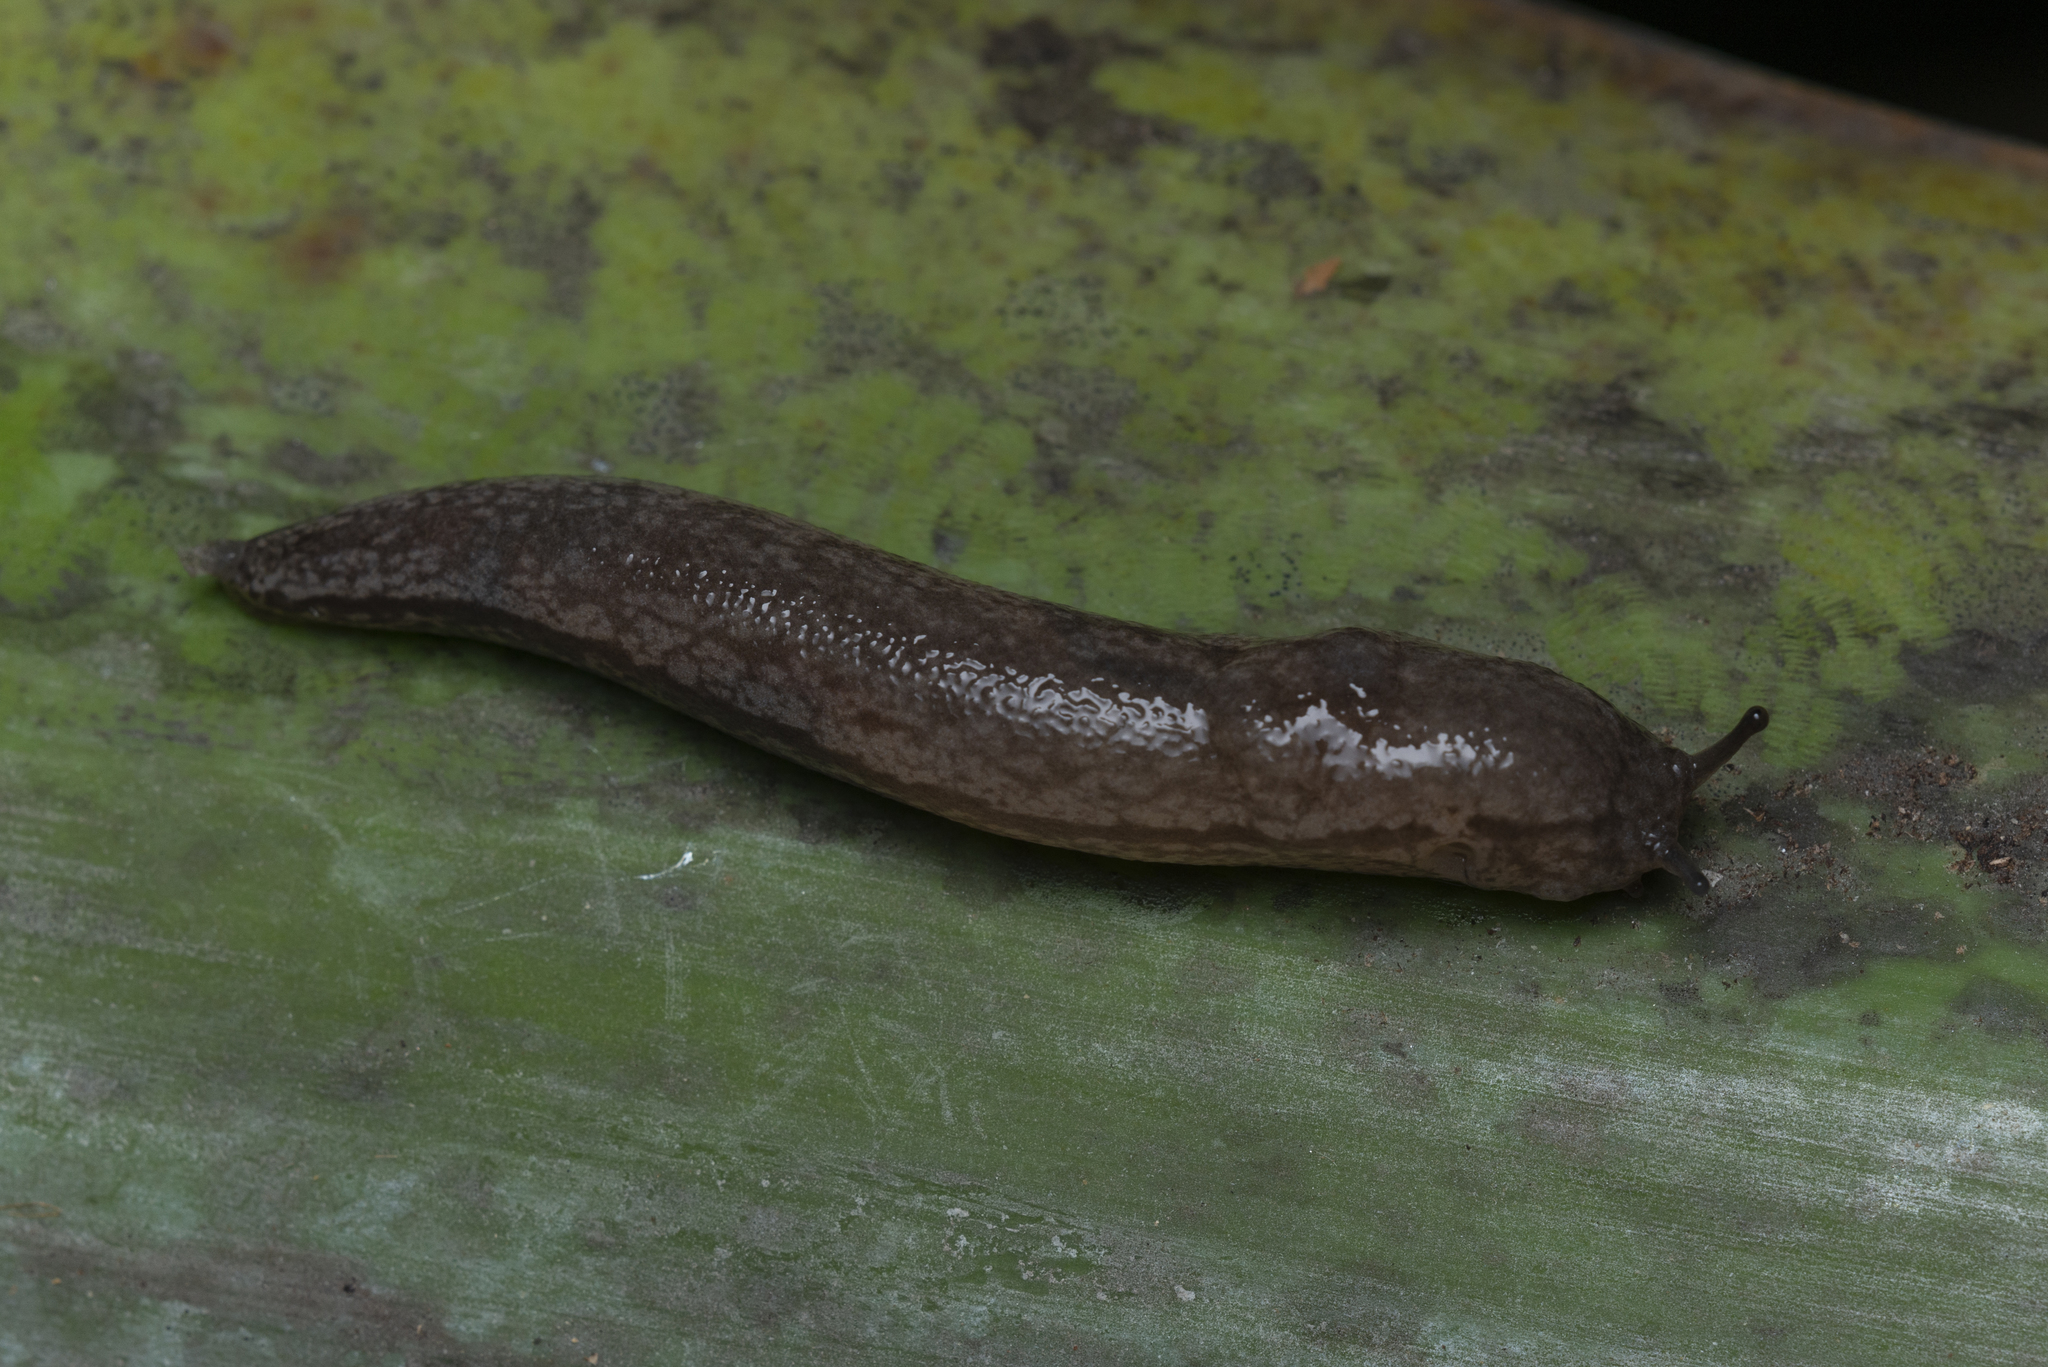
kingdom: Animalia
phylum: Mollusca
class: Gastropoda
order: Stylommatophora
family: Philomycidae
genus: Meghimatium
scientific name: Meghimatium bilineatum
